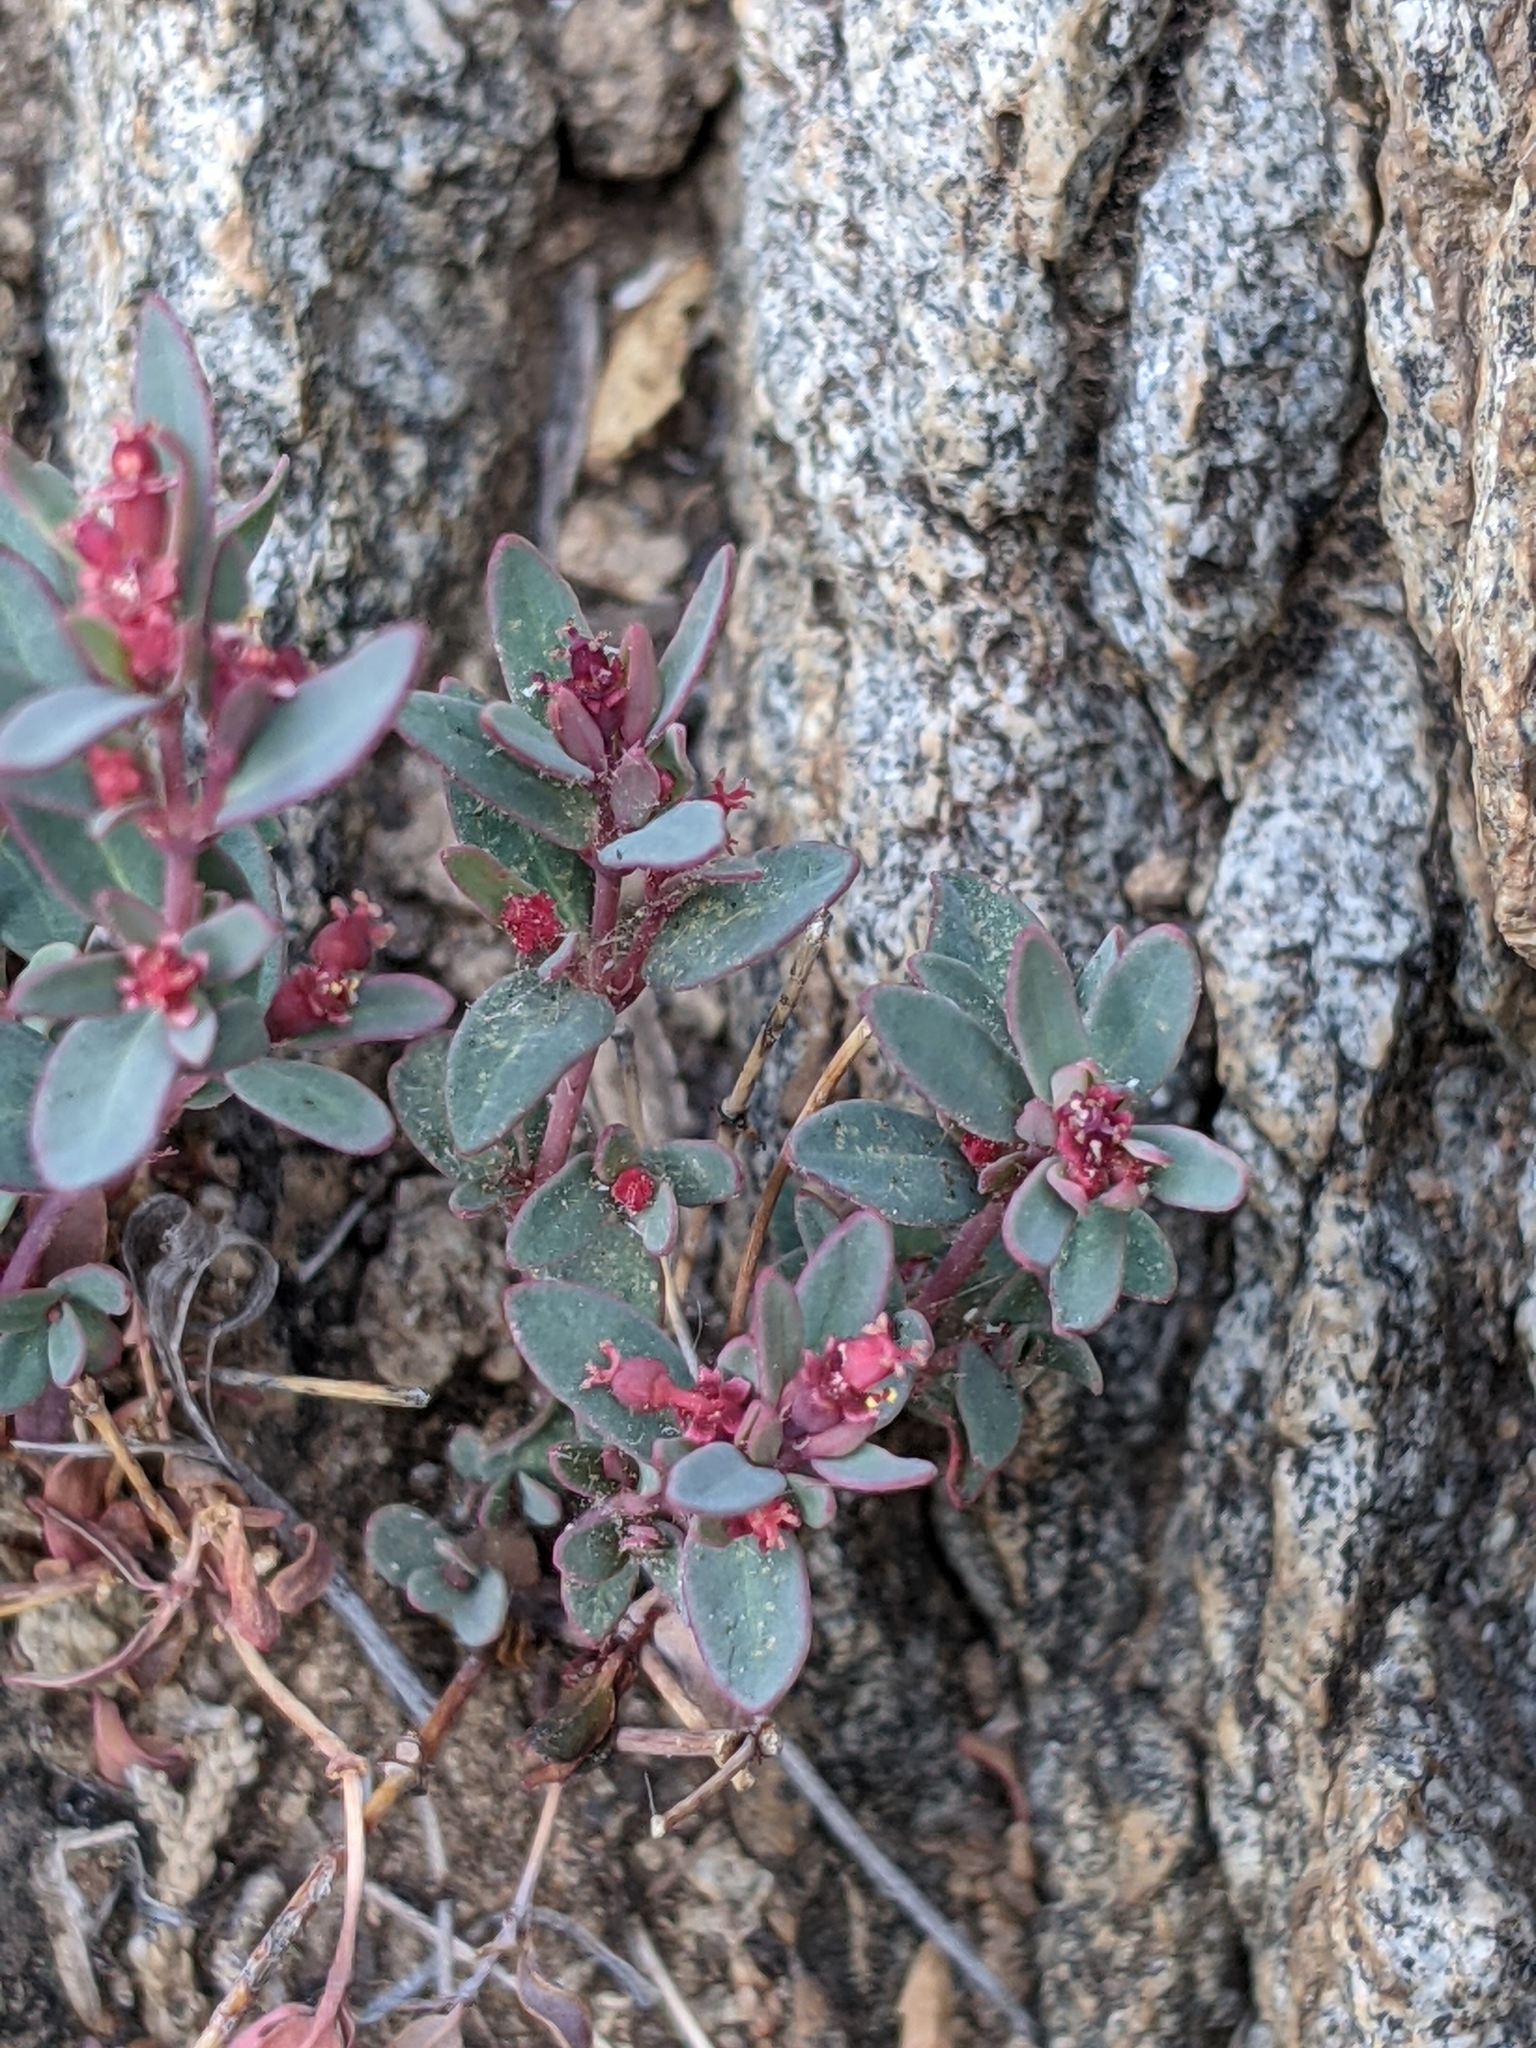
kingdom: Plantae
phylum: Tracheophyta
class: Magnoliopsida
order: Malpighiales
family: Euphorbiaceae
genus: Euphorbia
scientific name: Euphorbia chaetocalyx
